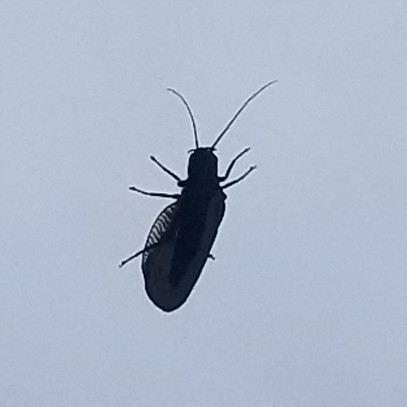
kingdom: Animalia
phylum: Arthropoda
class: Insecta
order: Megaloptera
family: Sialidae
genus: Sialis
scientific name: Sialis
